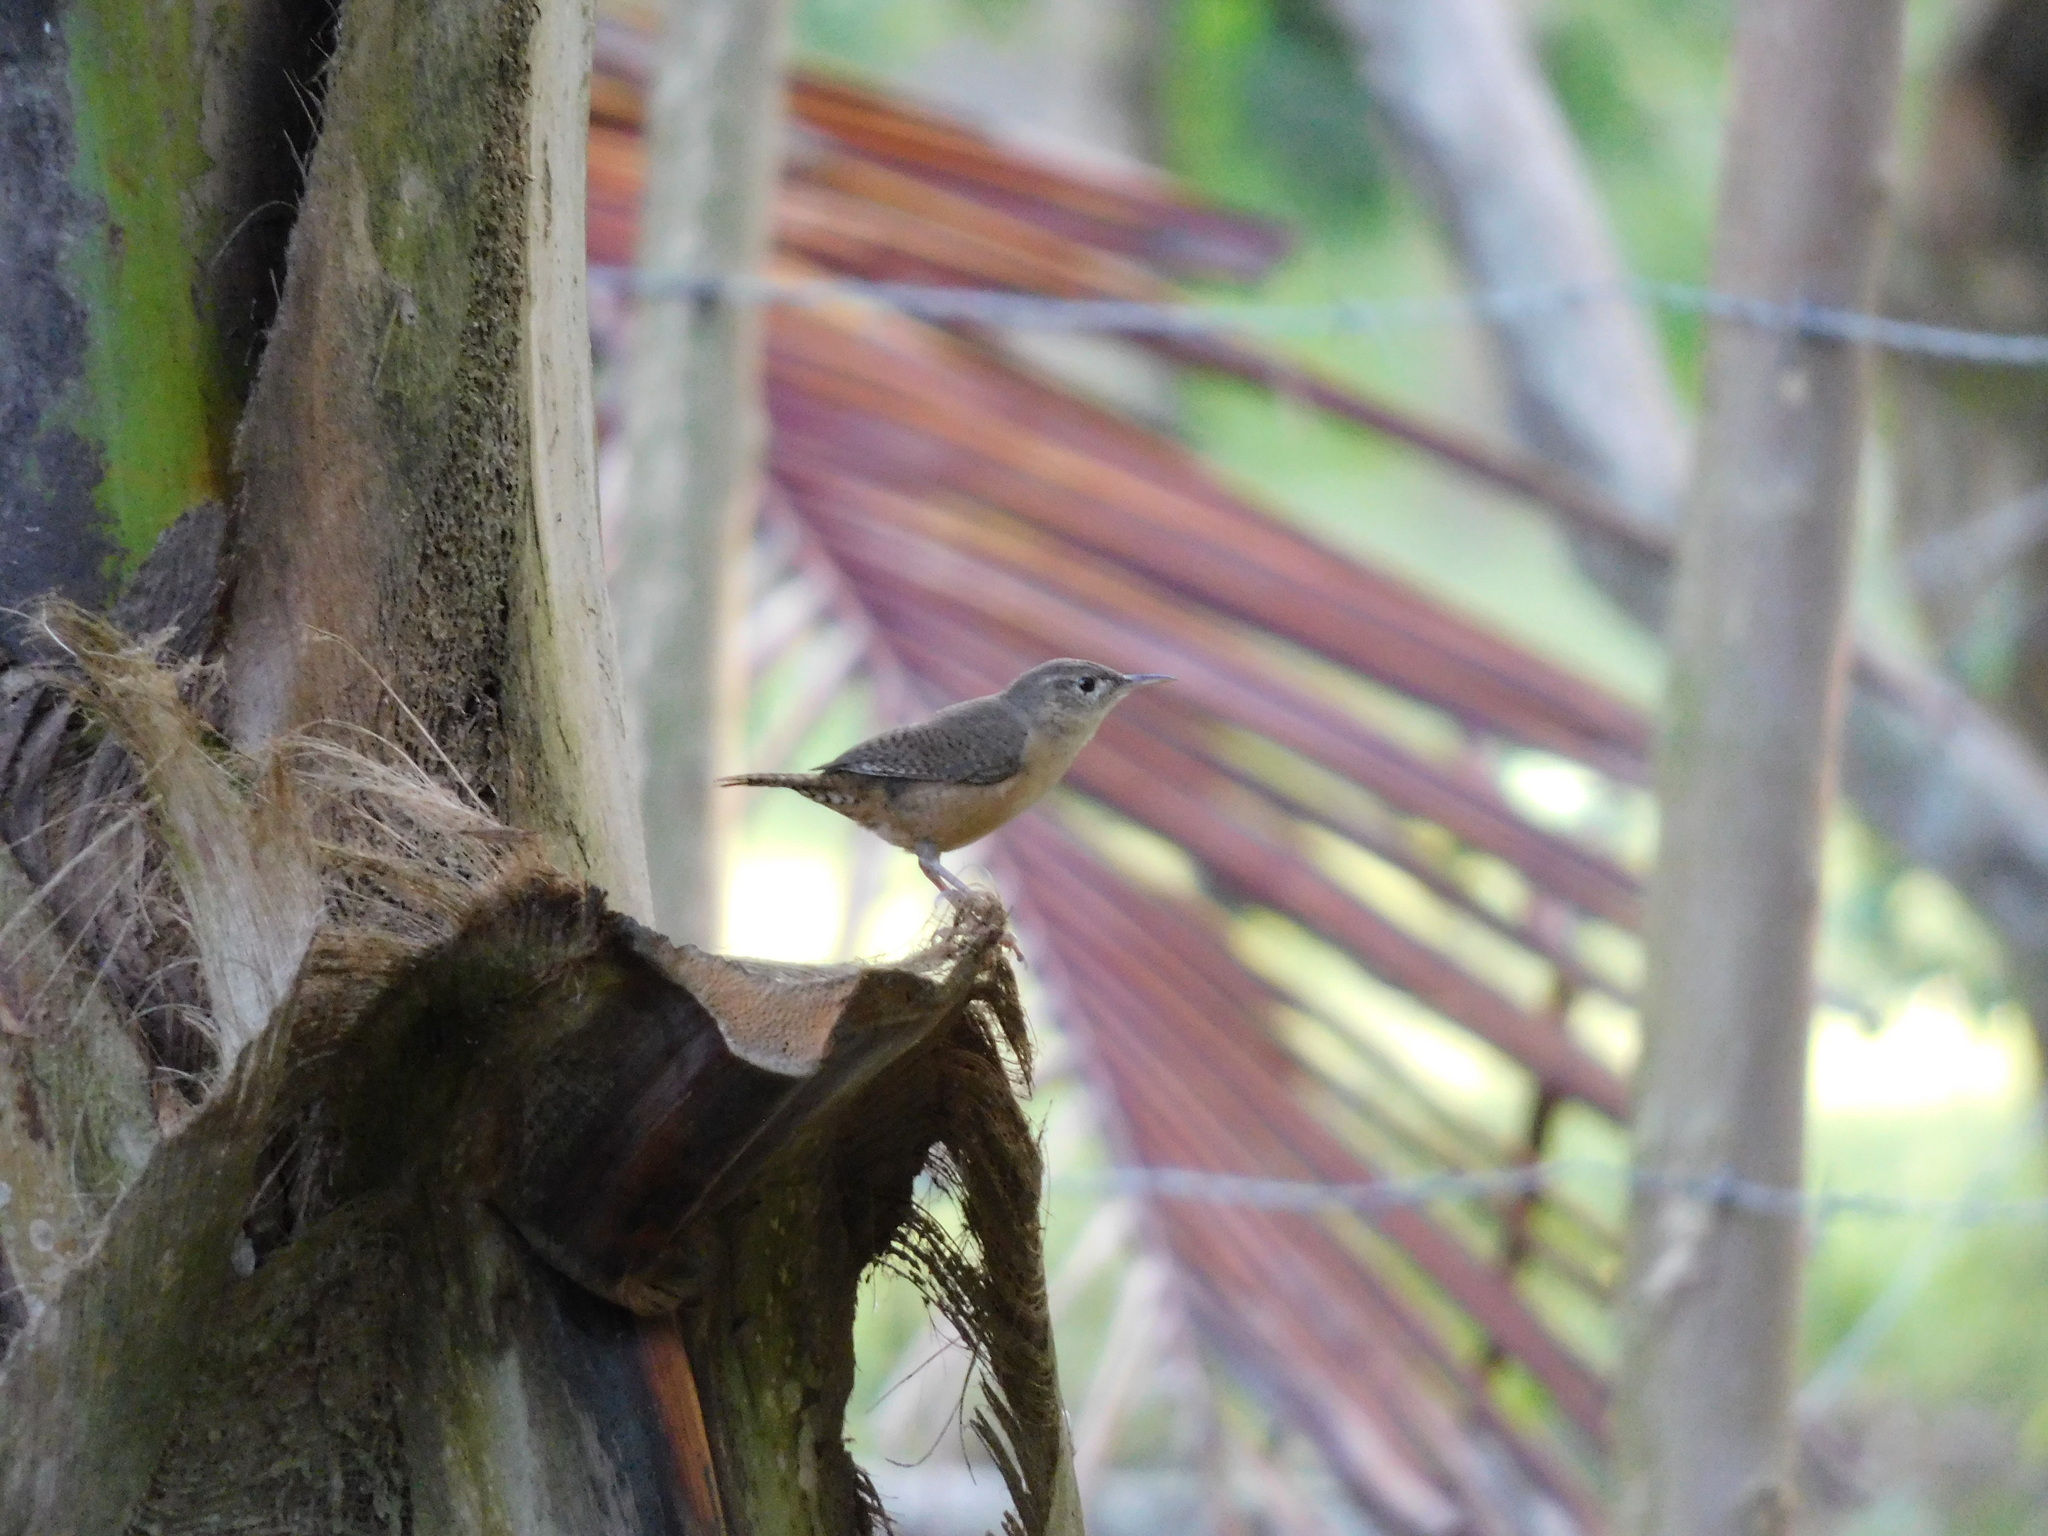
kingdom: Animalia
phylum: Chordata
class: Aves
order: Passeriformes
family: Troglodytidae
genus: Troglodytes
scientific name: Troglodytes aedon
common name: House wren
